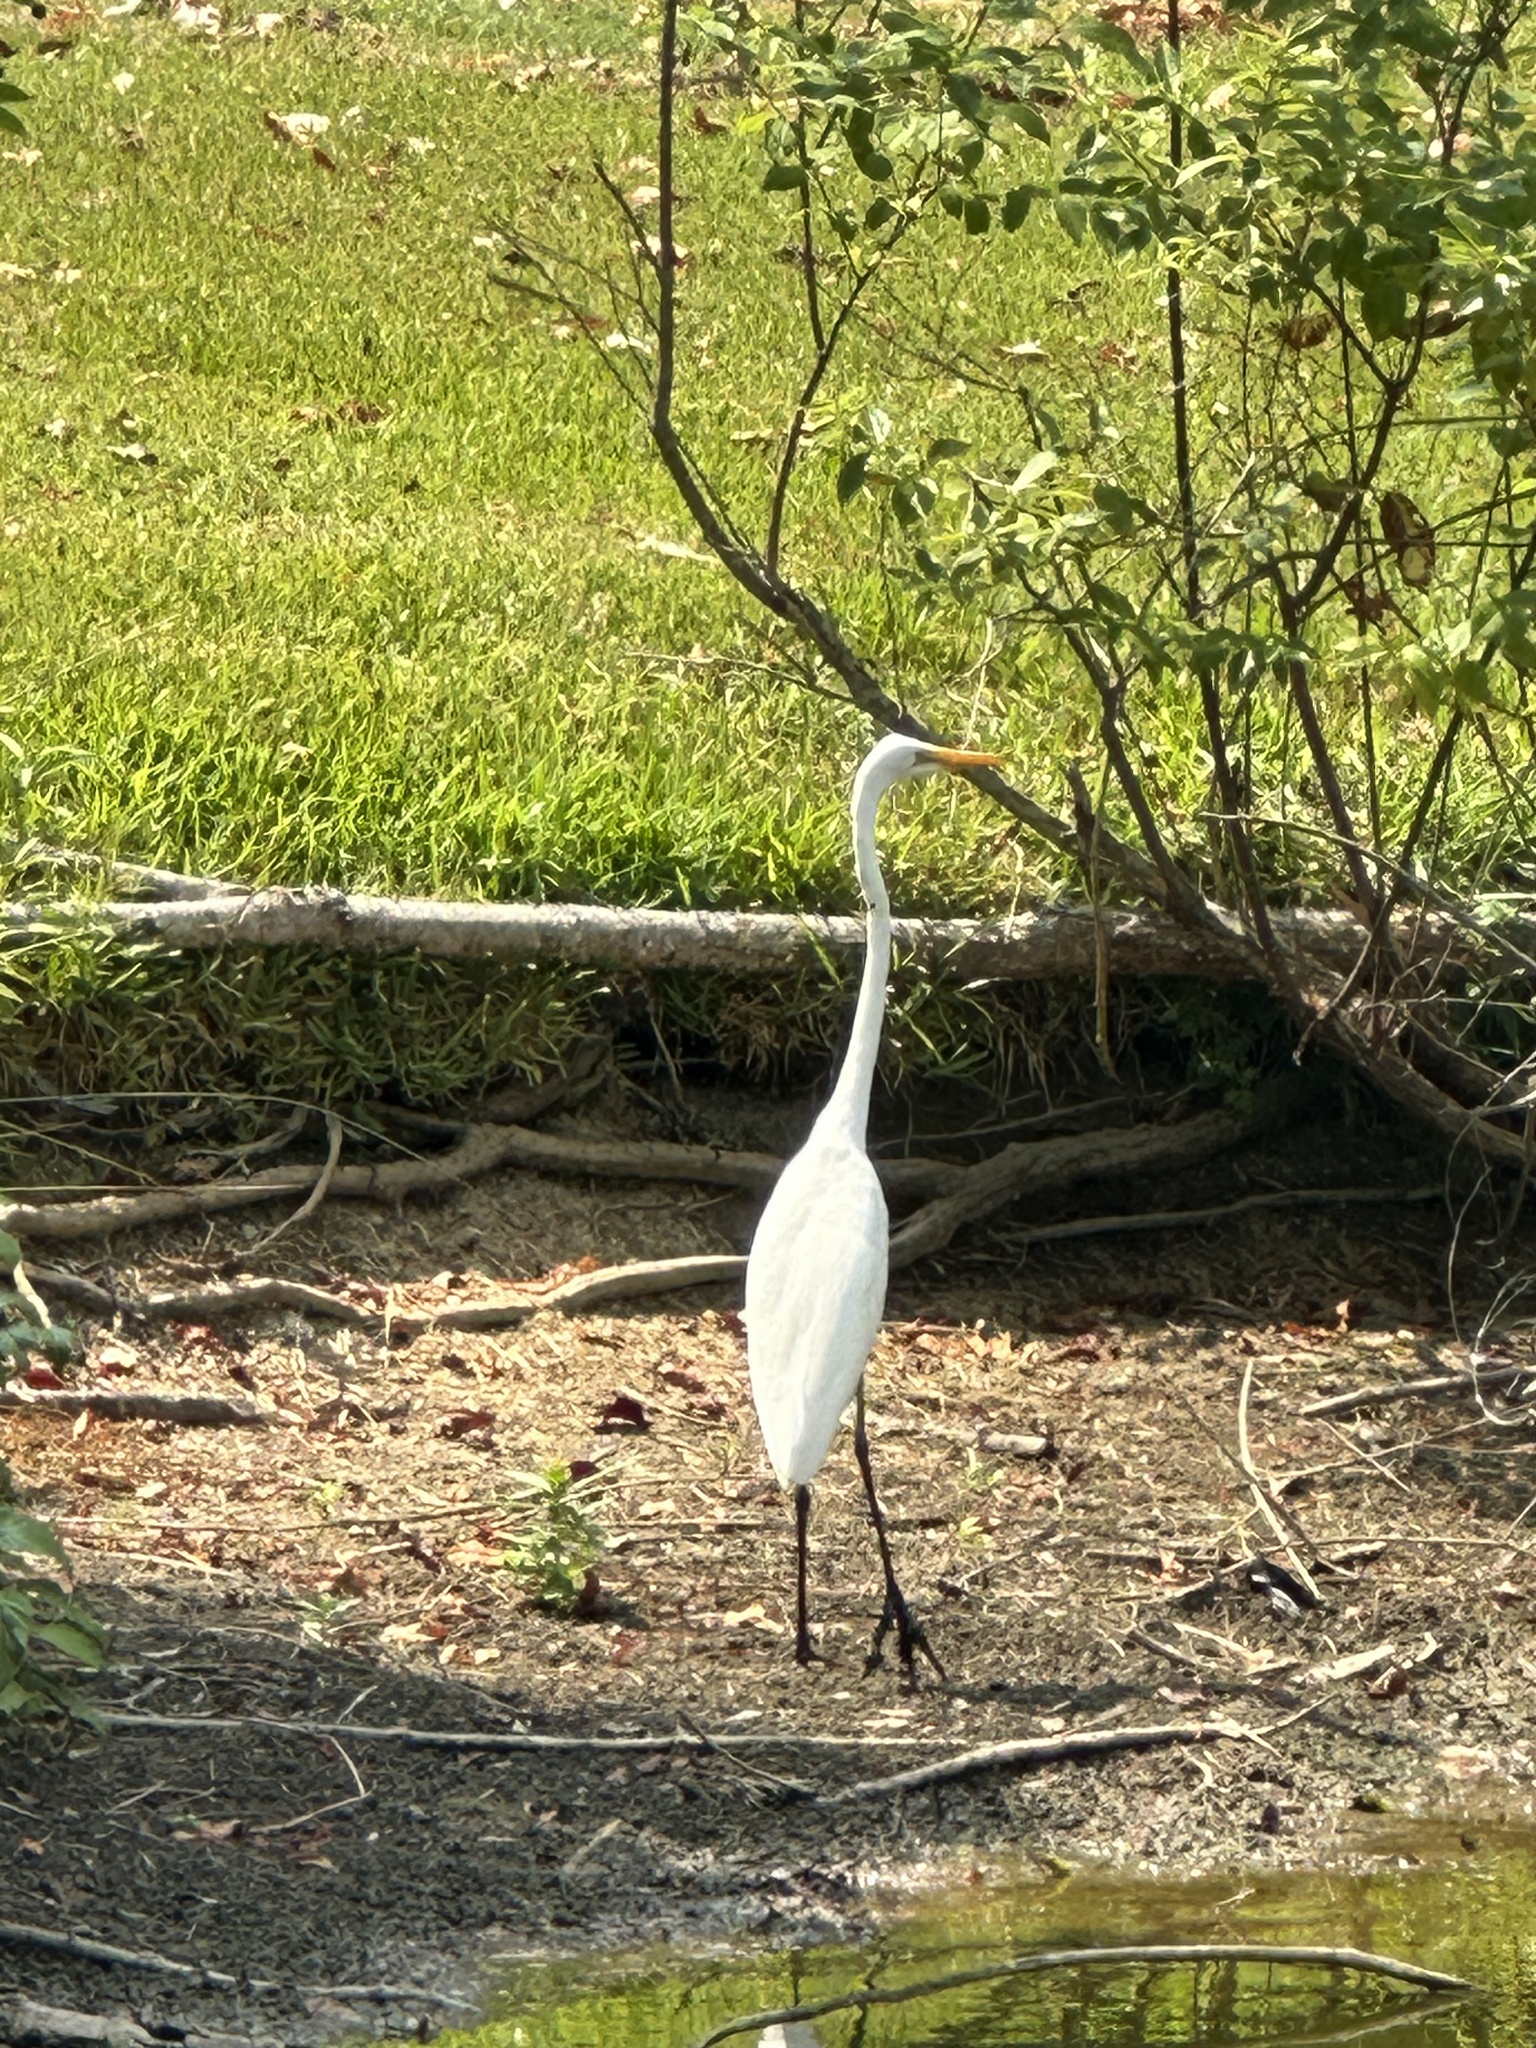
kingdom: Animalia
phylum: Chordata
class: Aves
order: Pelecaniformes
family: Ardeidae
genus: Ardea
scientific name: Ardea alba
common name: Great egret
